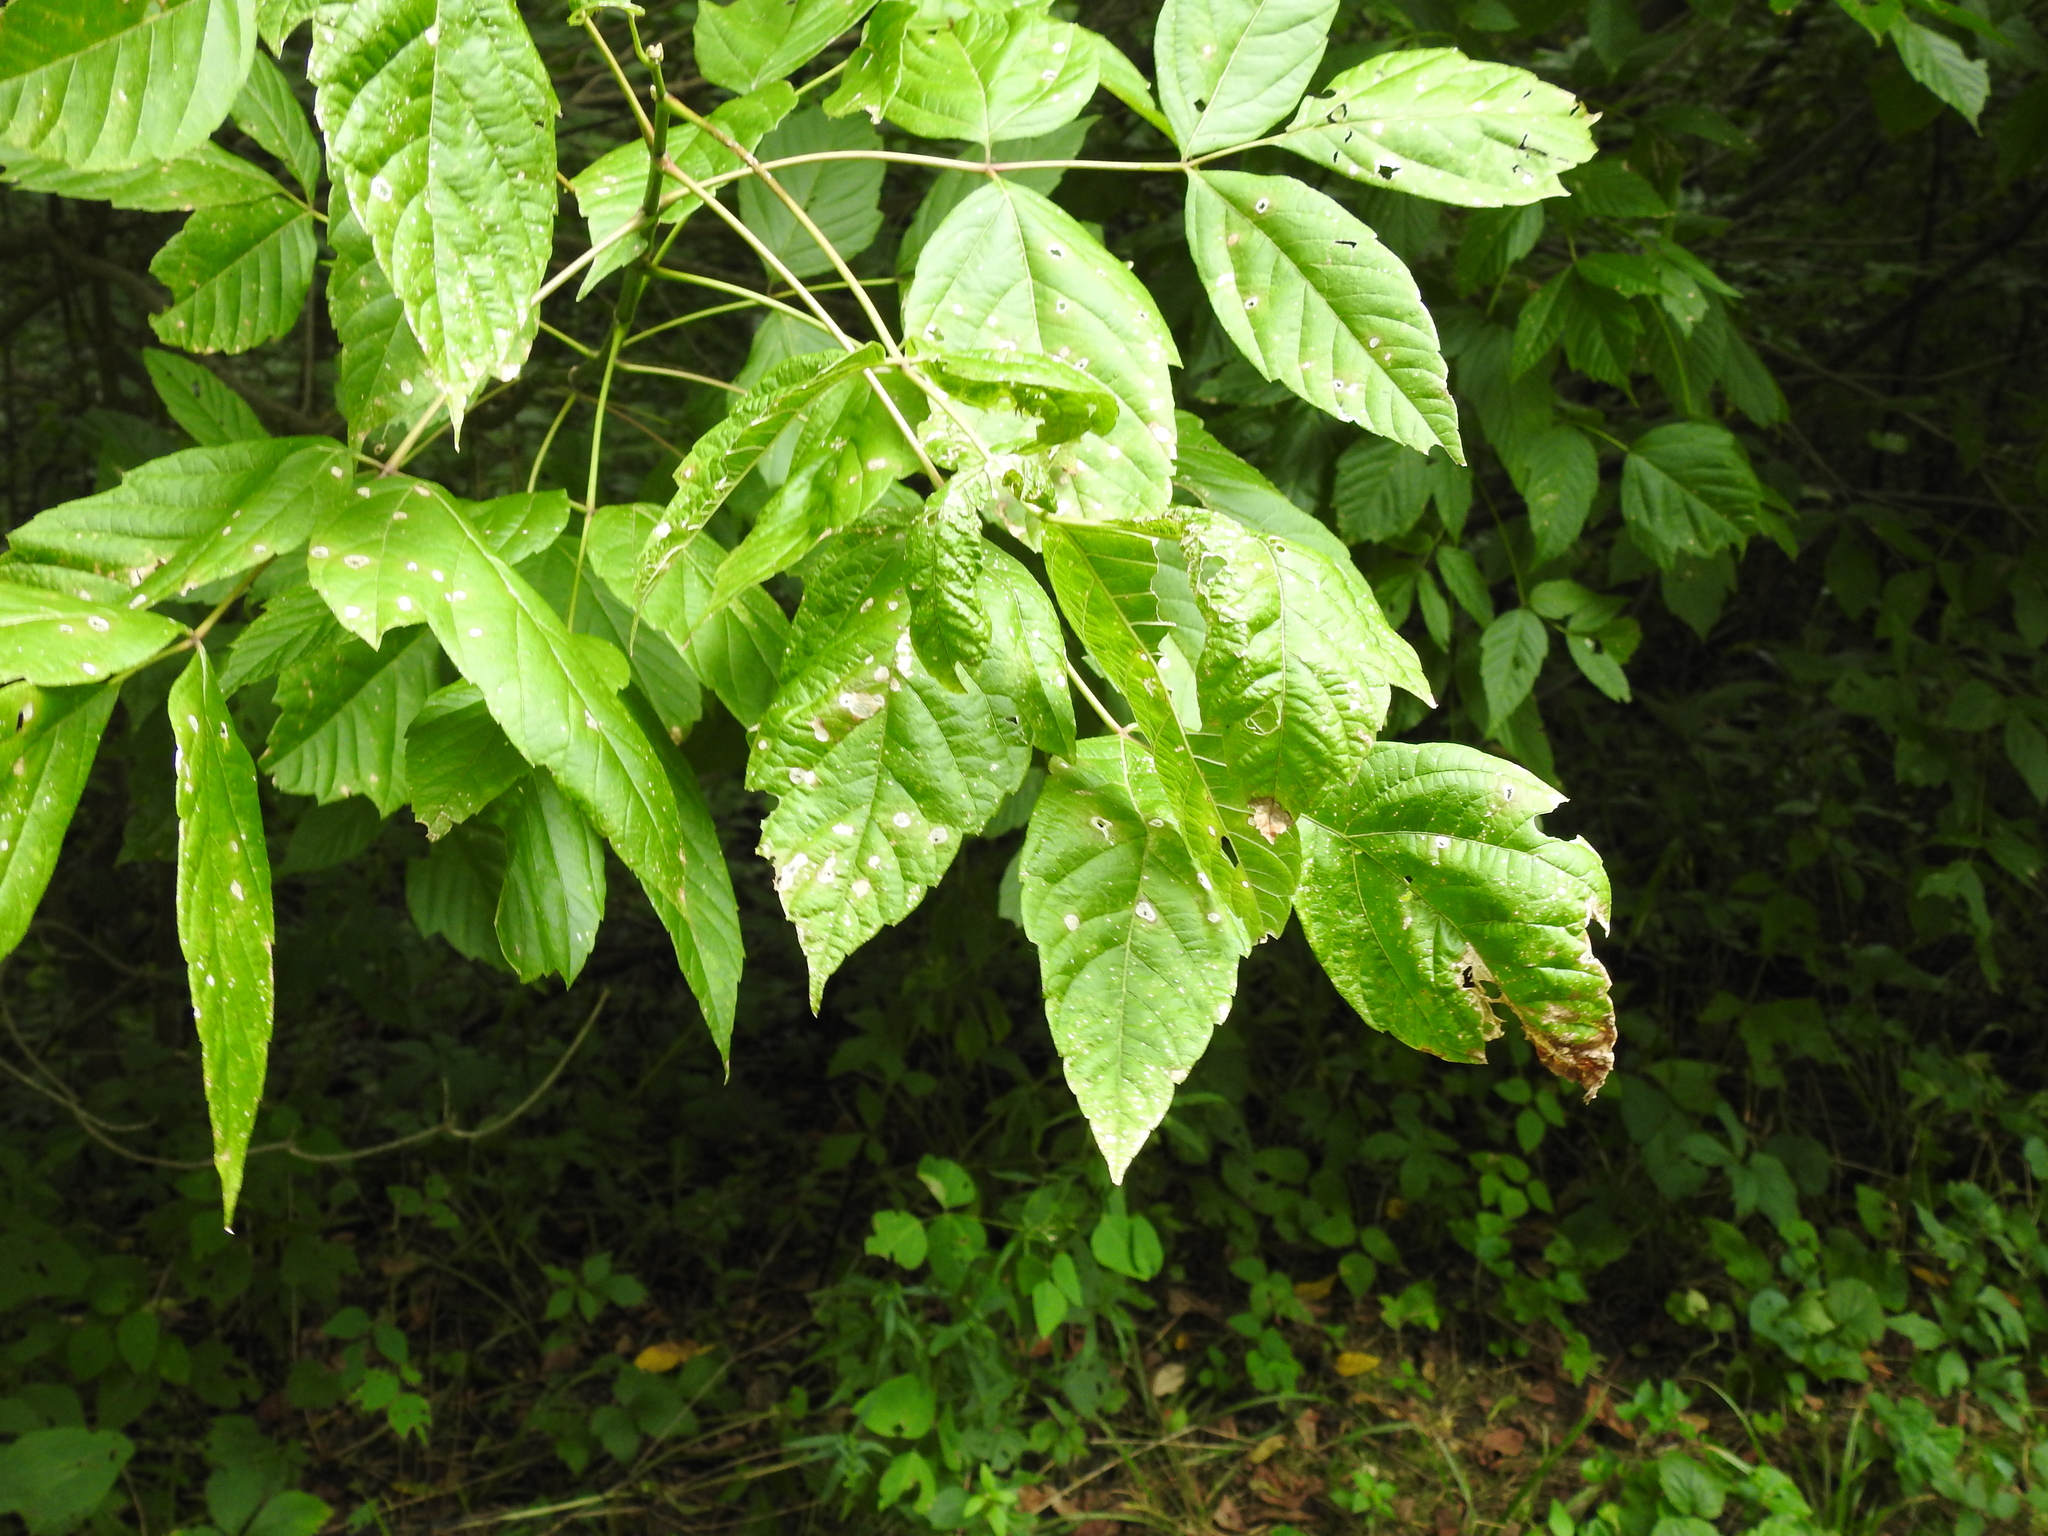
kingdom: Plantae
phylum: Tracheophyta
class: Magnoliopsida
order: Sapindales
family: Sapindaceae
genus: Acer
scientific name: Acer negundo
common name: Ashleaf maple
